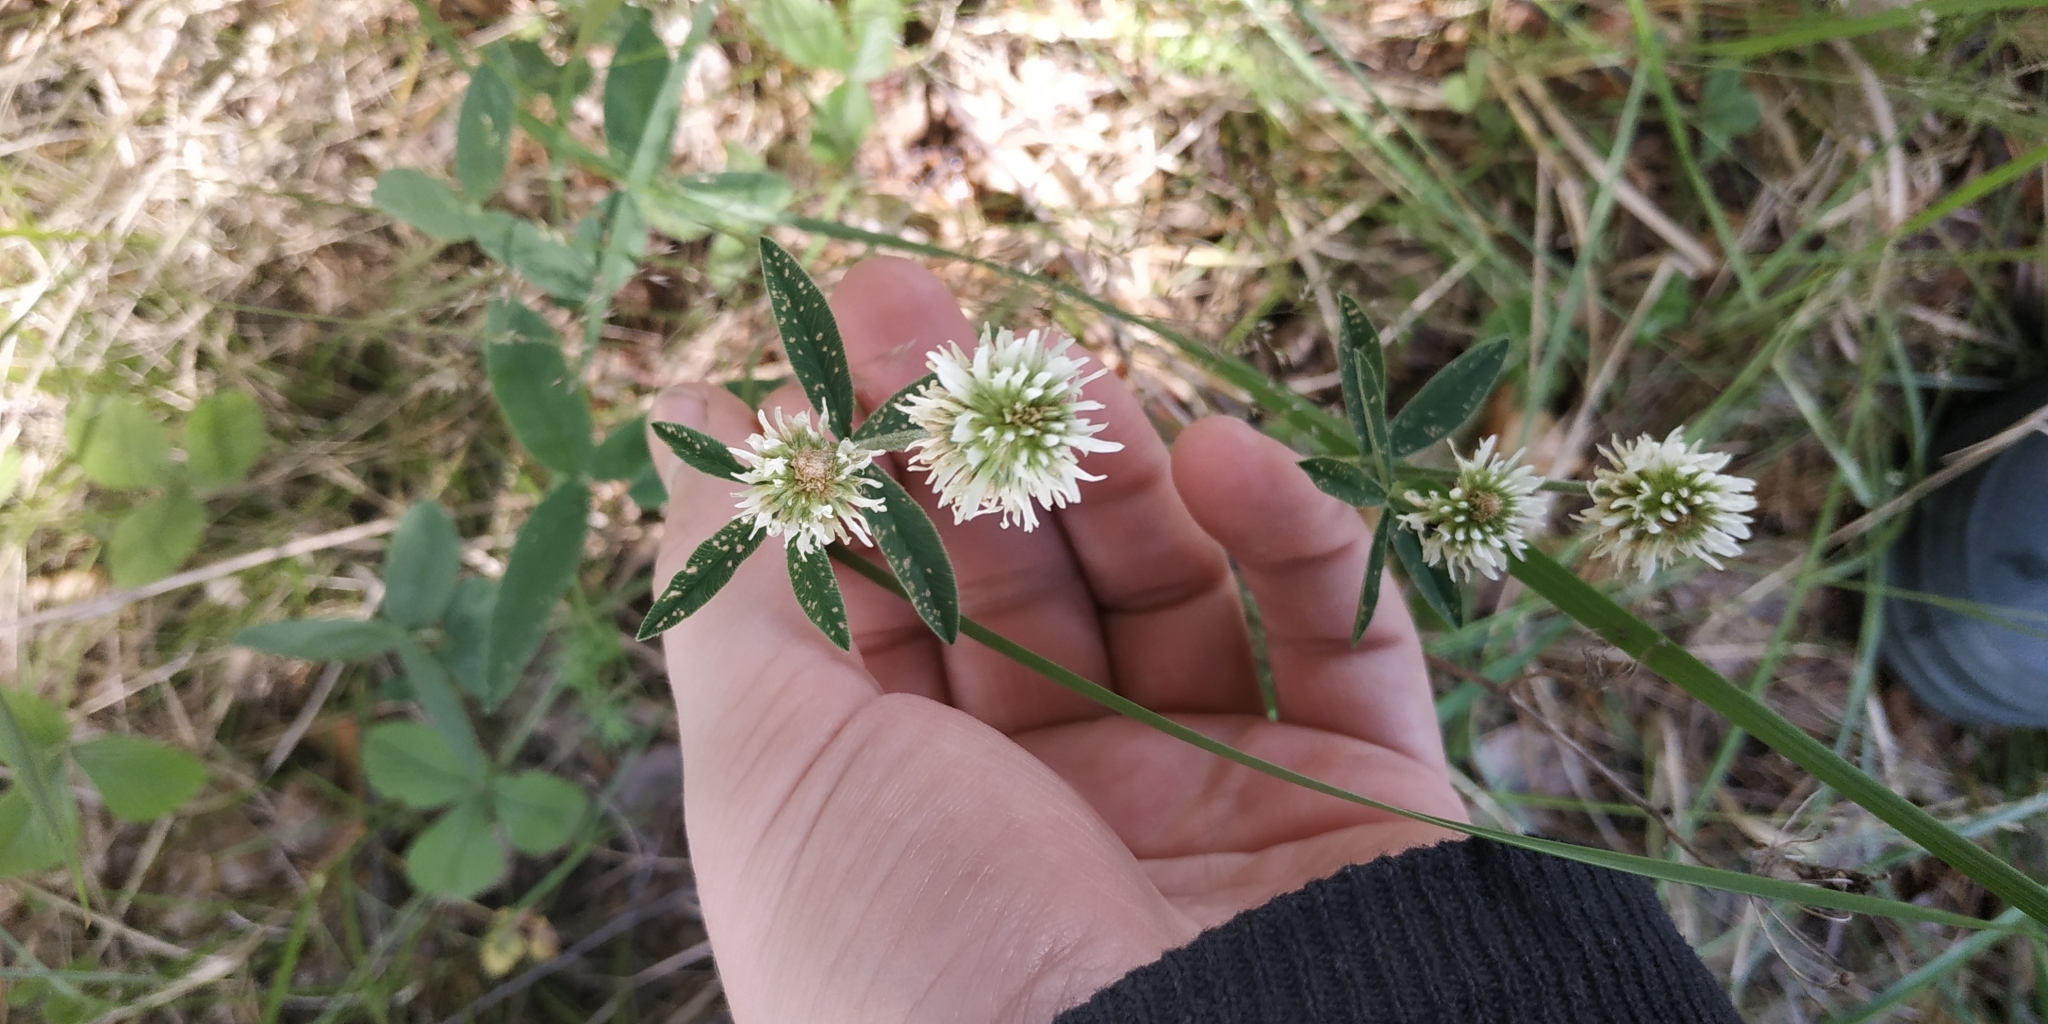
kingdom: Plantae
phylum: Tracheophyta
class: Magnoliopsida
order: Fabales
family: Fabaceae
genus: Trifolium
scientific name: Trifolium montanum
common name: Mountain clover
